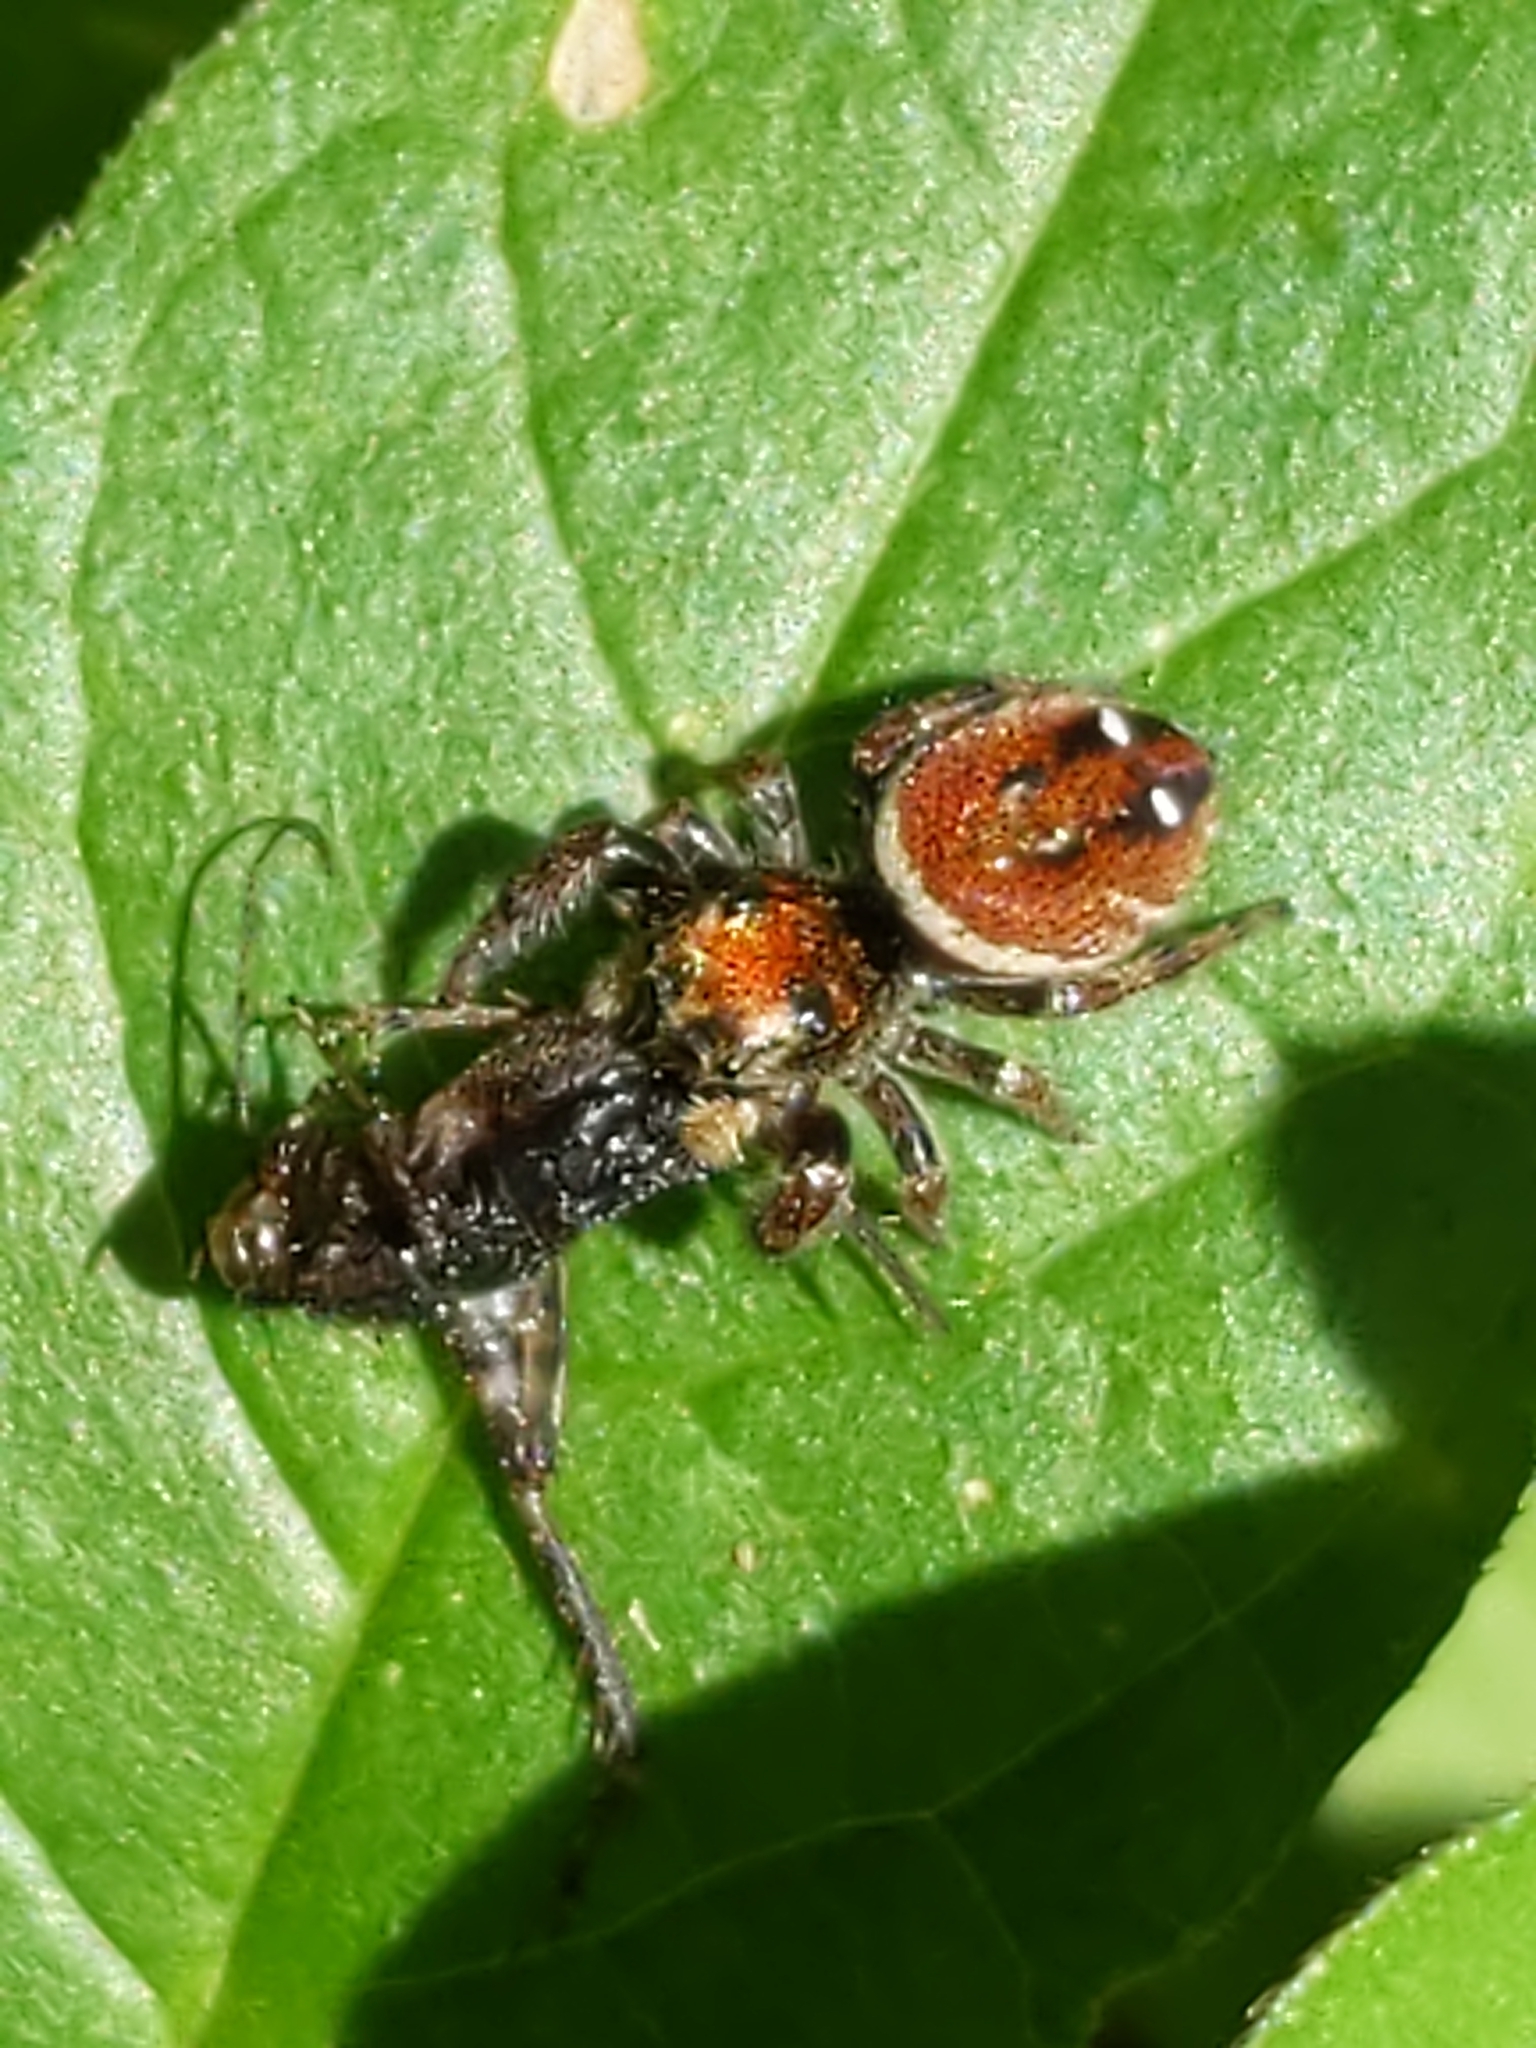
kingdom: Animalia
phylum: Arthropoda
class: Arachnida
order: Araneae
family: Salticidae
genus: Phidippus
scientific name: Phidippus whitmani
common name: Whitman's jumping spider
